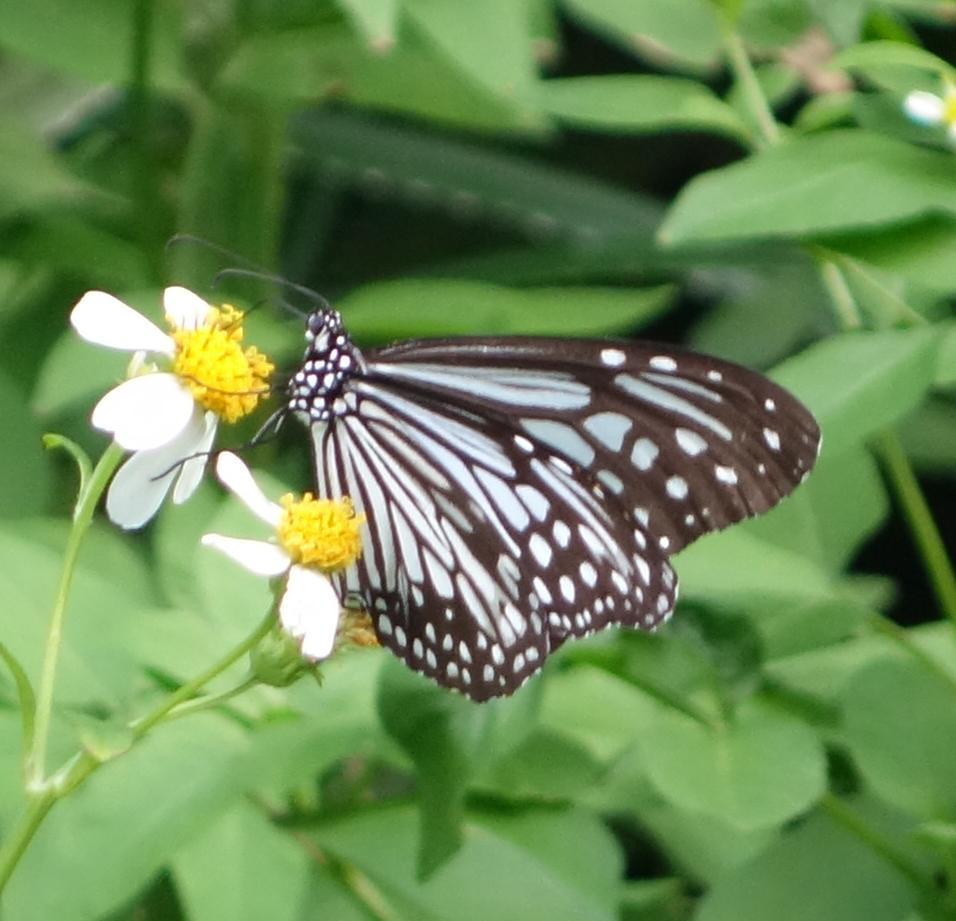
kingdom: Animalia
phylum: Arthropoda
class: Insecta
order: Lepidoptera
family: Nymphalidae
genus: Parantica
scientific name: Parantica aglea
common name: Glassy tiger
